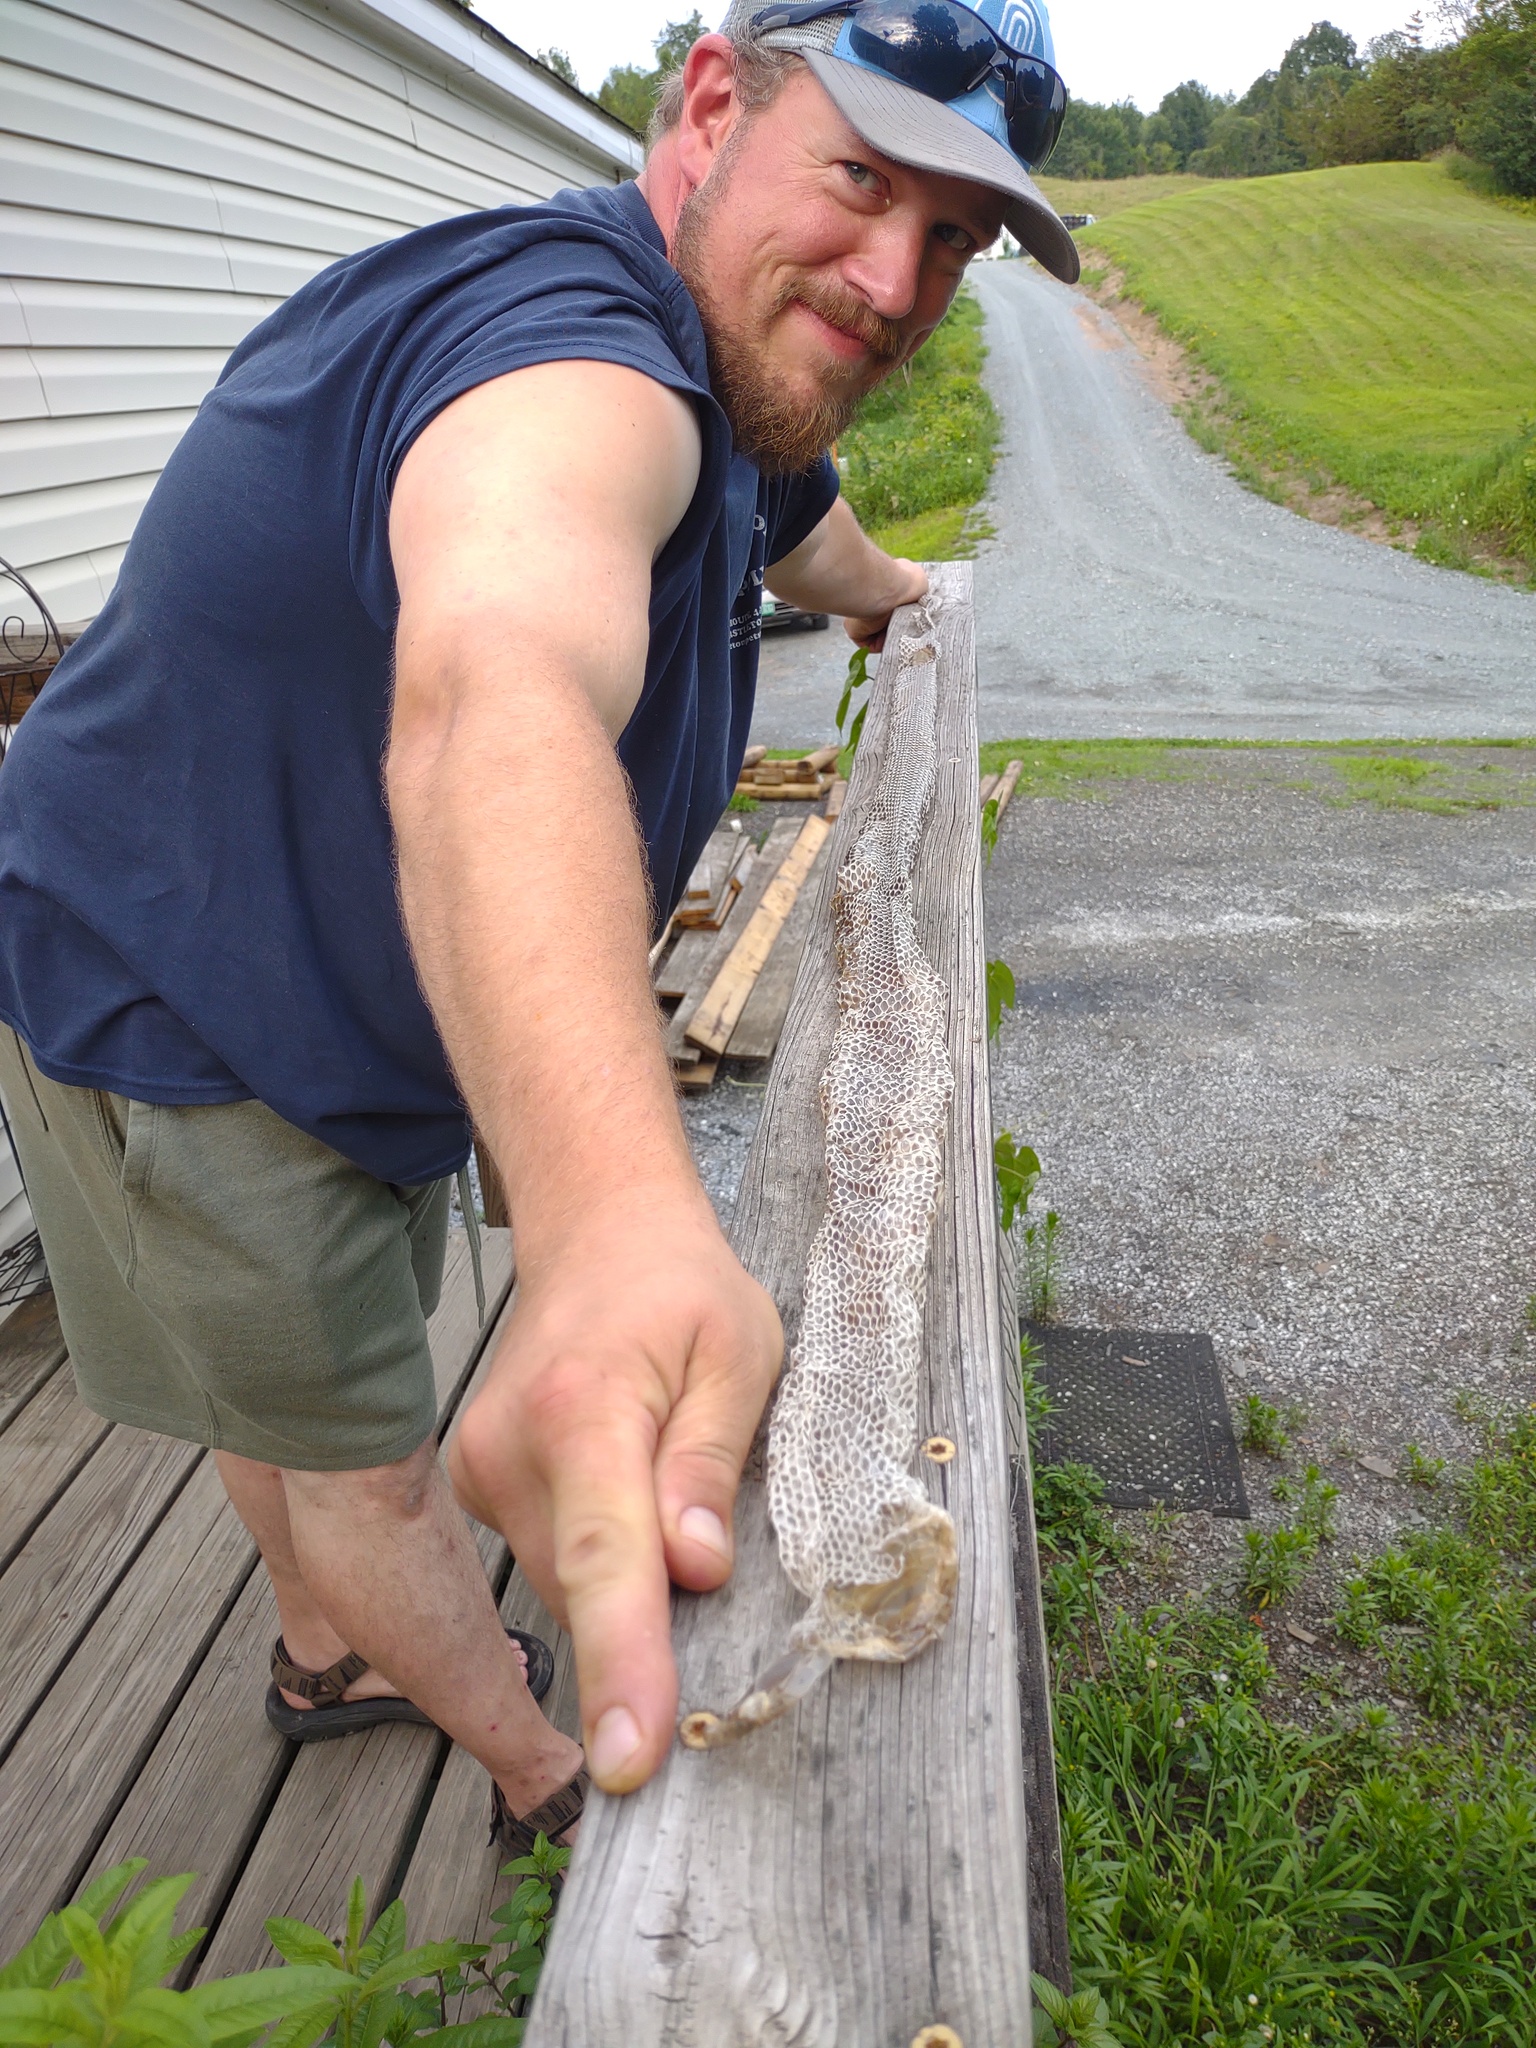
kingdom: Animalia
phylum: Chordata
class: Squamata
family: Colubridae
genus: Pantherophis
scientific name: Pantherophis
